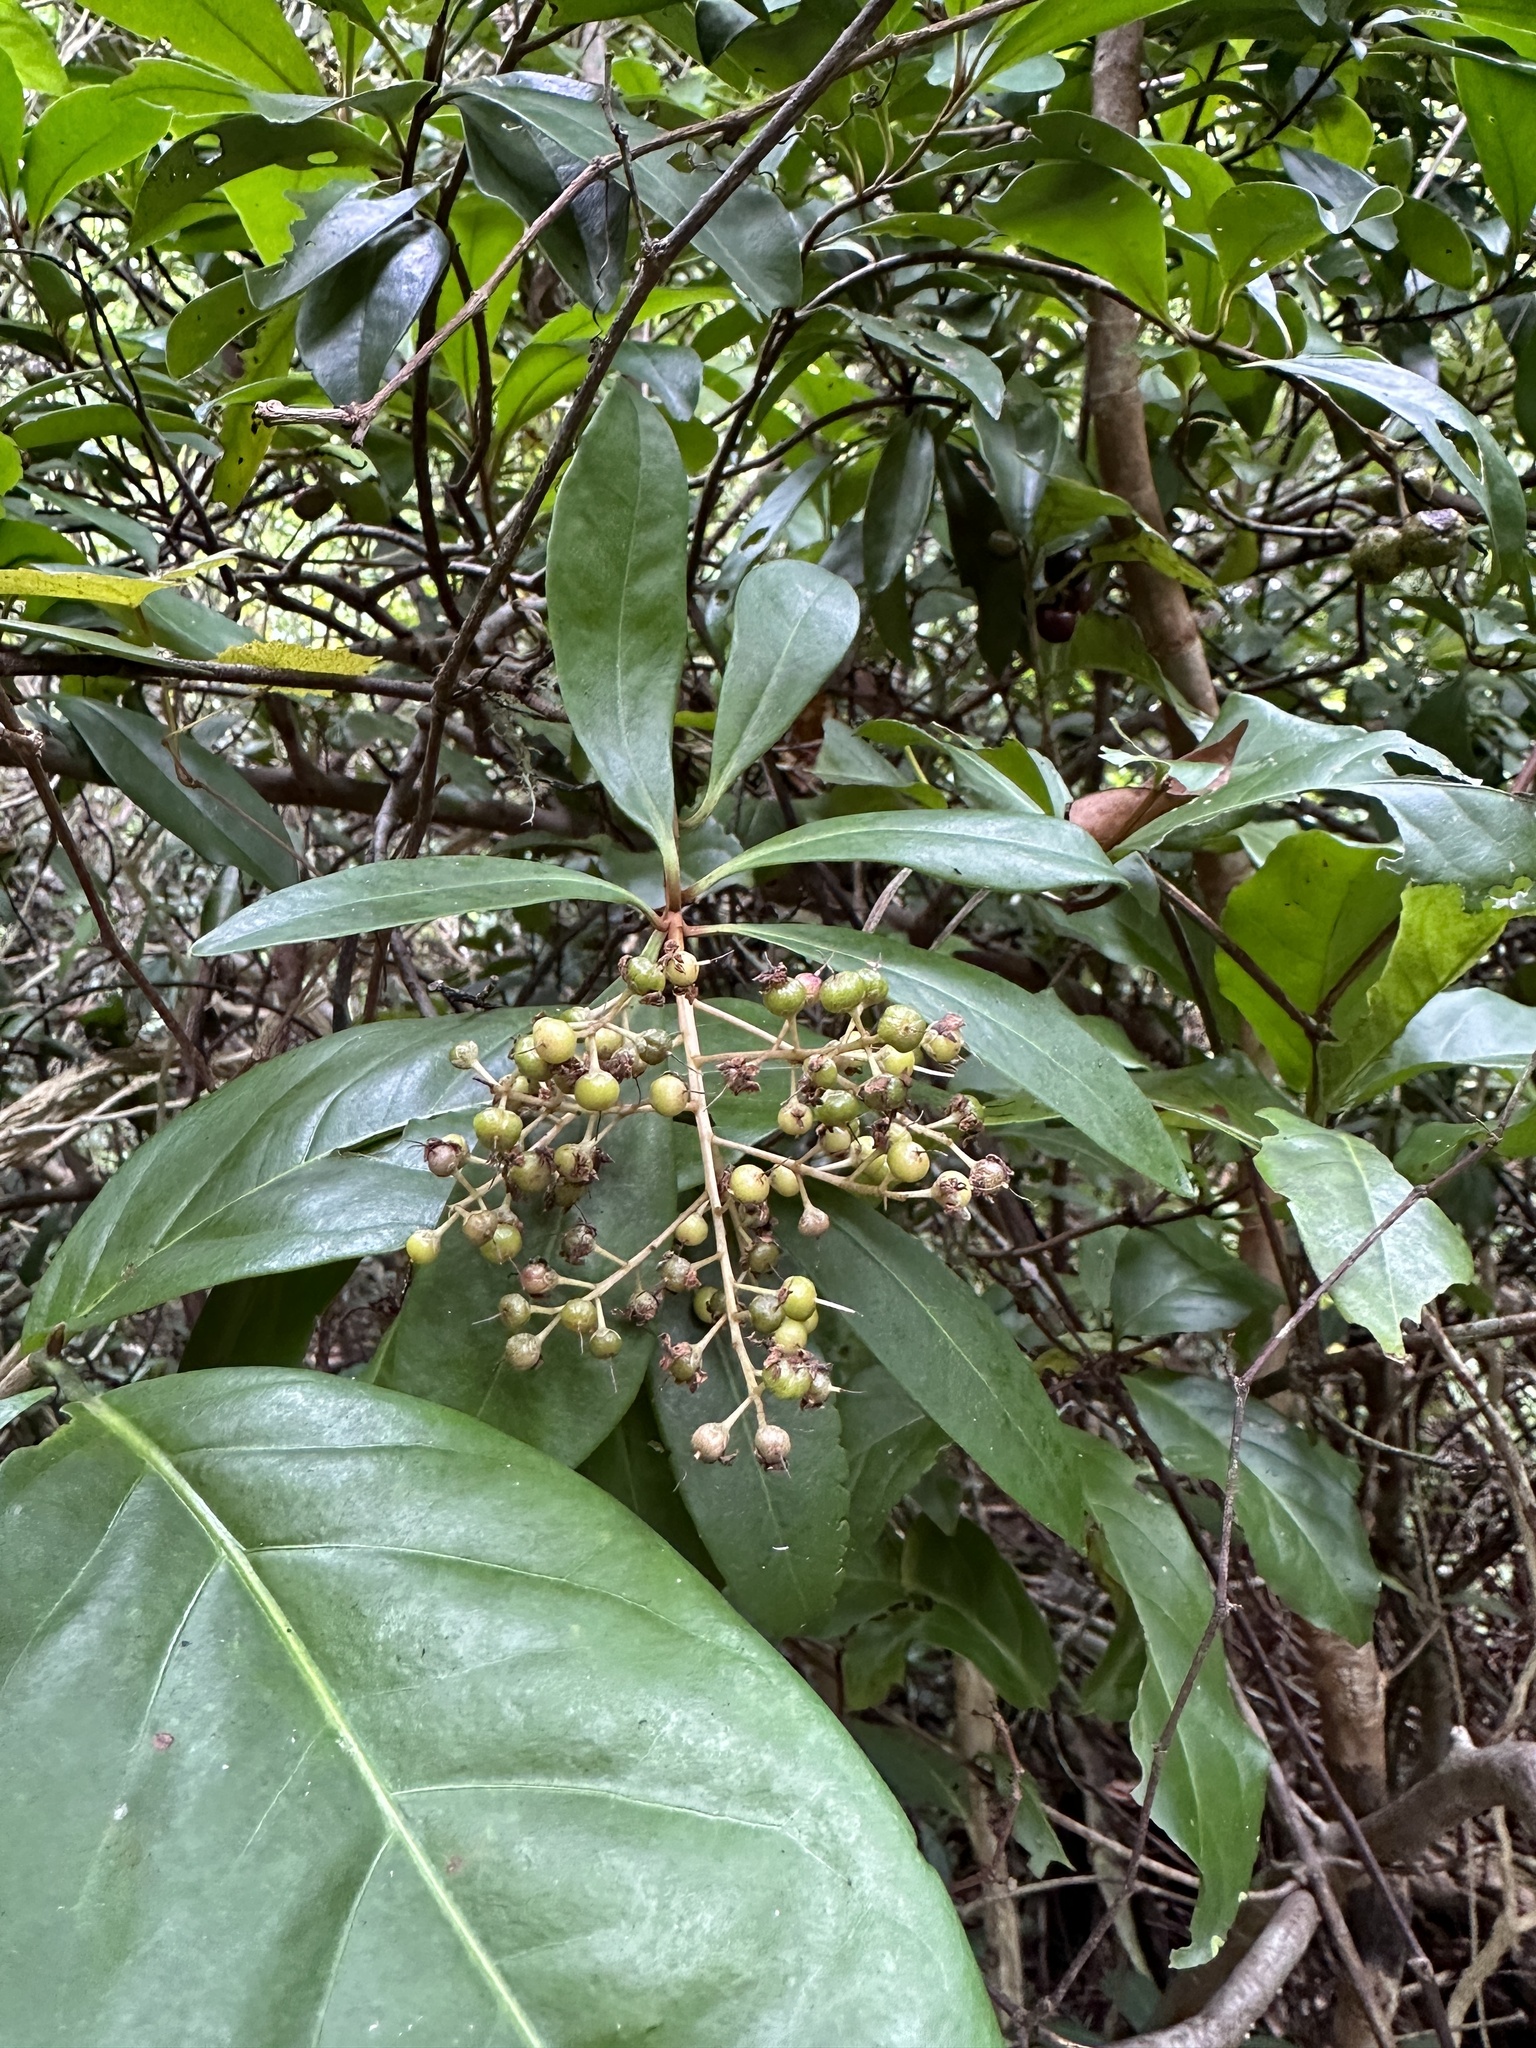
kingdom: Plantae
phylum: Tracheophyta
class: Magnoliopsida
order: Ericales
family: Primulaceae
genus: Ardisia
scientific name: Ardisia escallonioides
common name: Island marlberry
